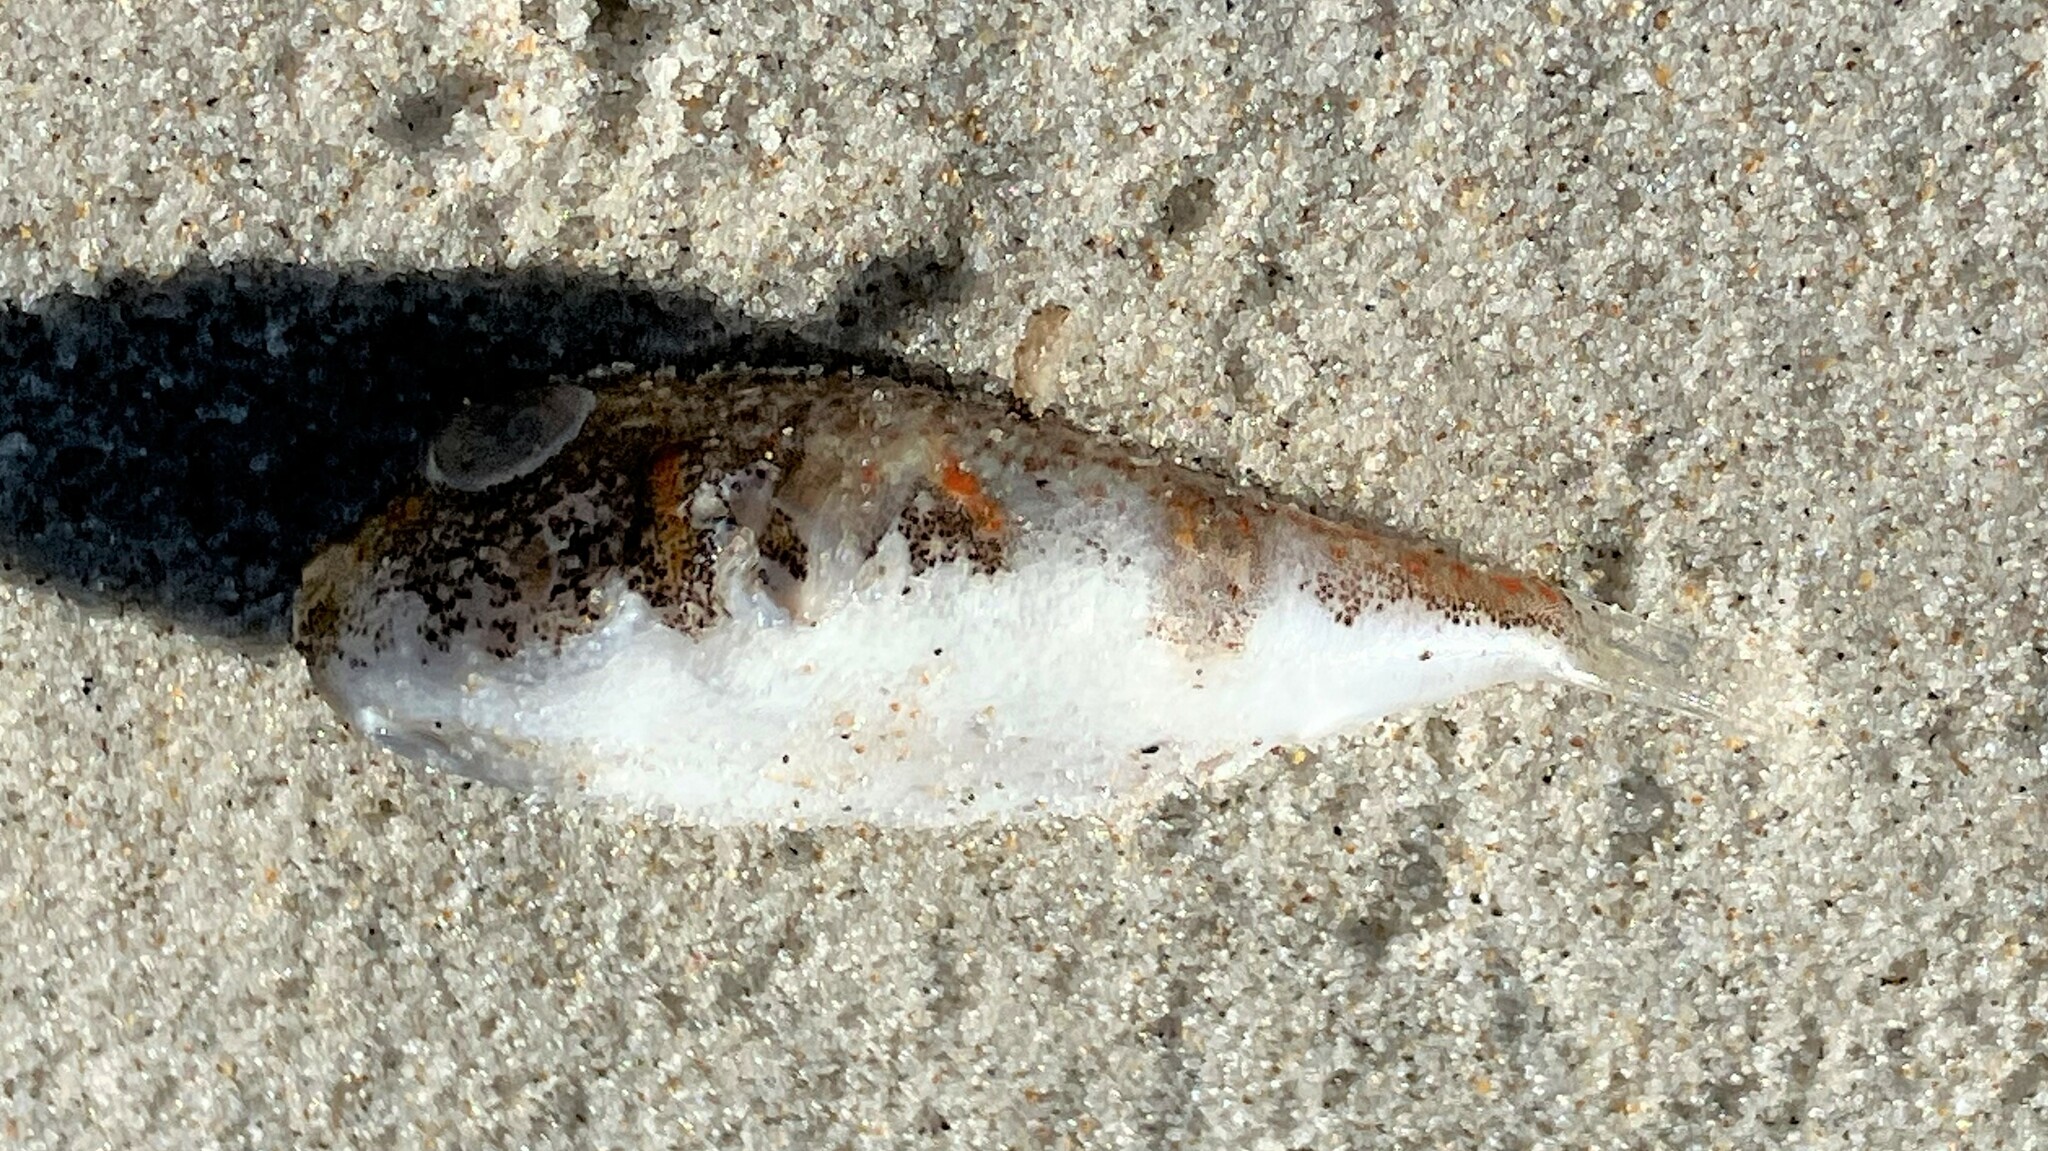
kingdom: Animalia
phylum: Chordata
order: Tetraodontiformes
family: Tetraodontidae
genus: Polyspina
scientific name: Polyspina piosae
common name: Orange-barred pufferfish
